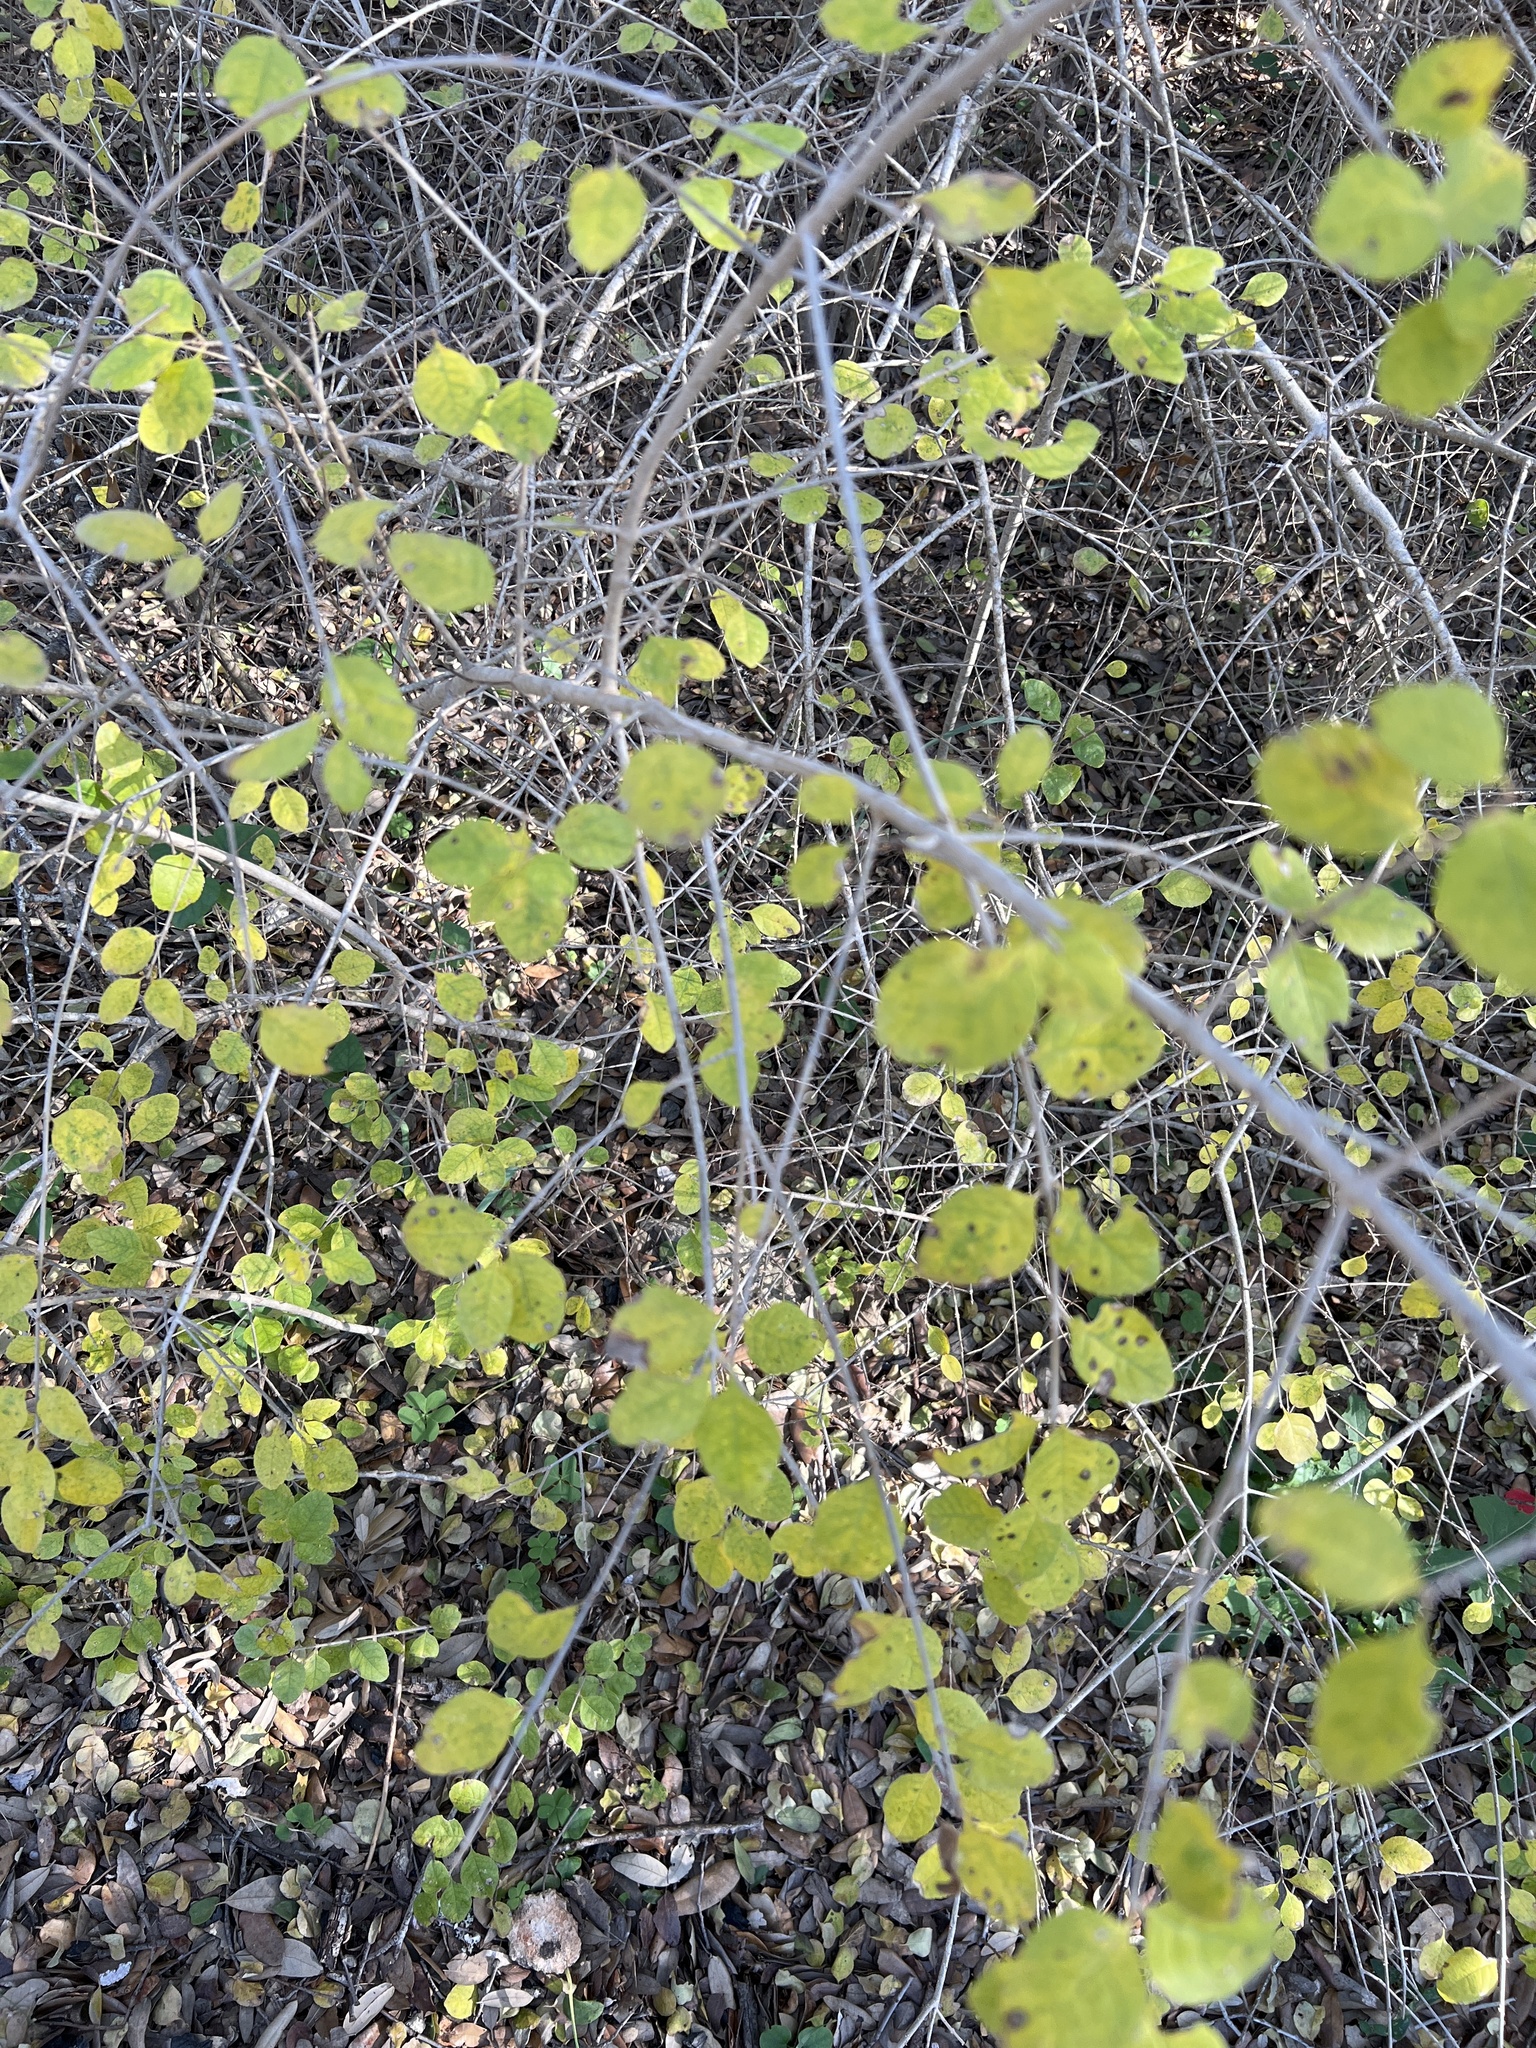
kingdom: Plantae
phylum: Tracheophyta
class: Magnoliopsida
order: Lamiales
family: Oleaceae
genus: Forestiera
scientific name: Forestiera pubescens
